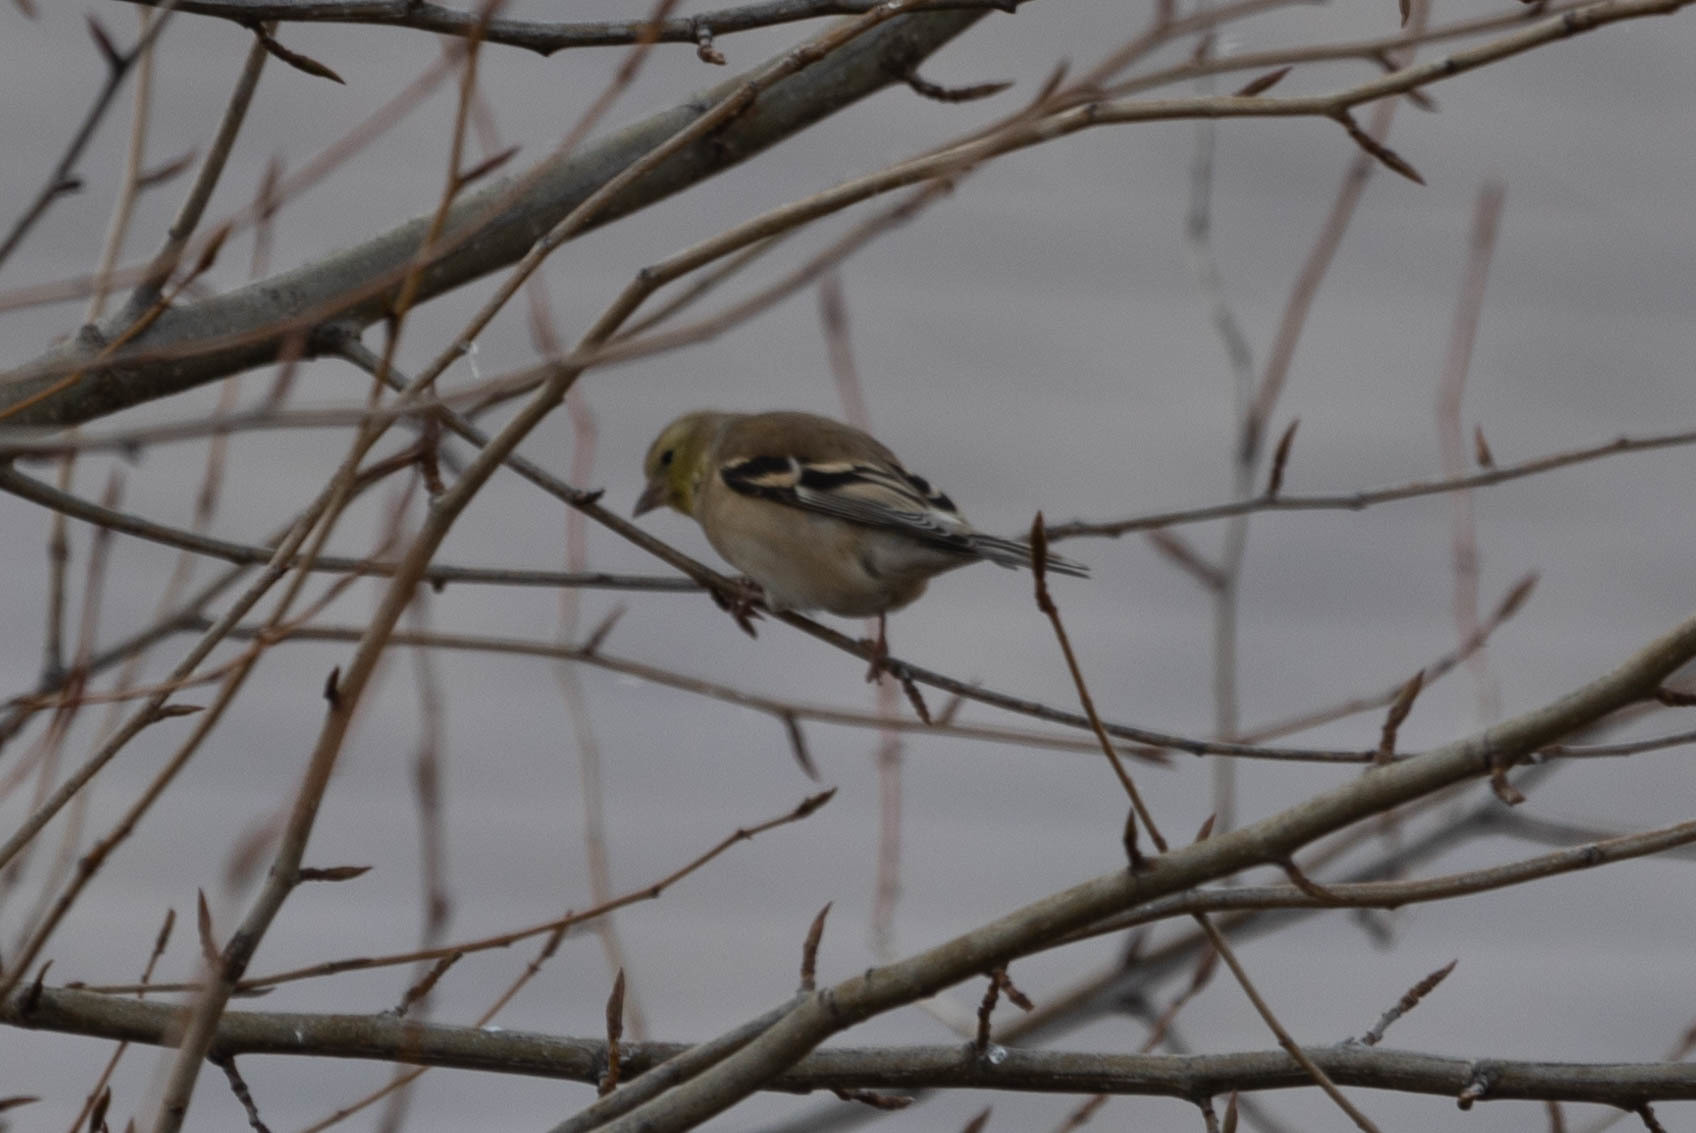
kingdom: Animalia
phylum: Chordata
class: Aves
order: Passeriformes
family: Fringillidae
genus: Spinus
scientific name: Spinus tristis
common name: American goldfinch
